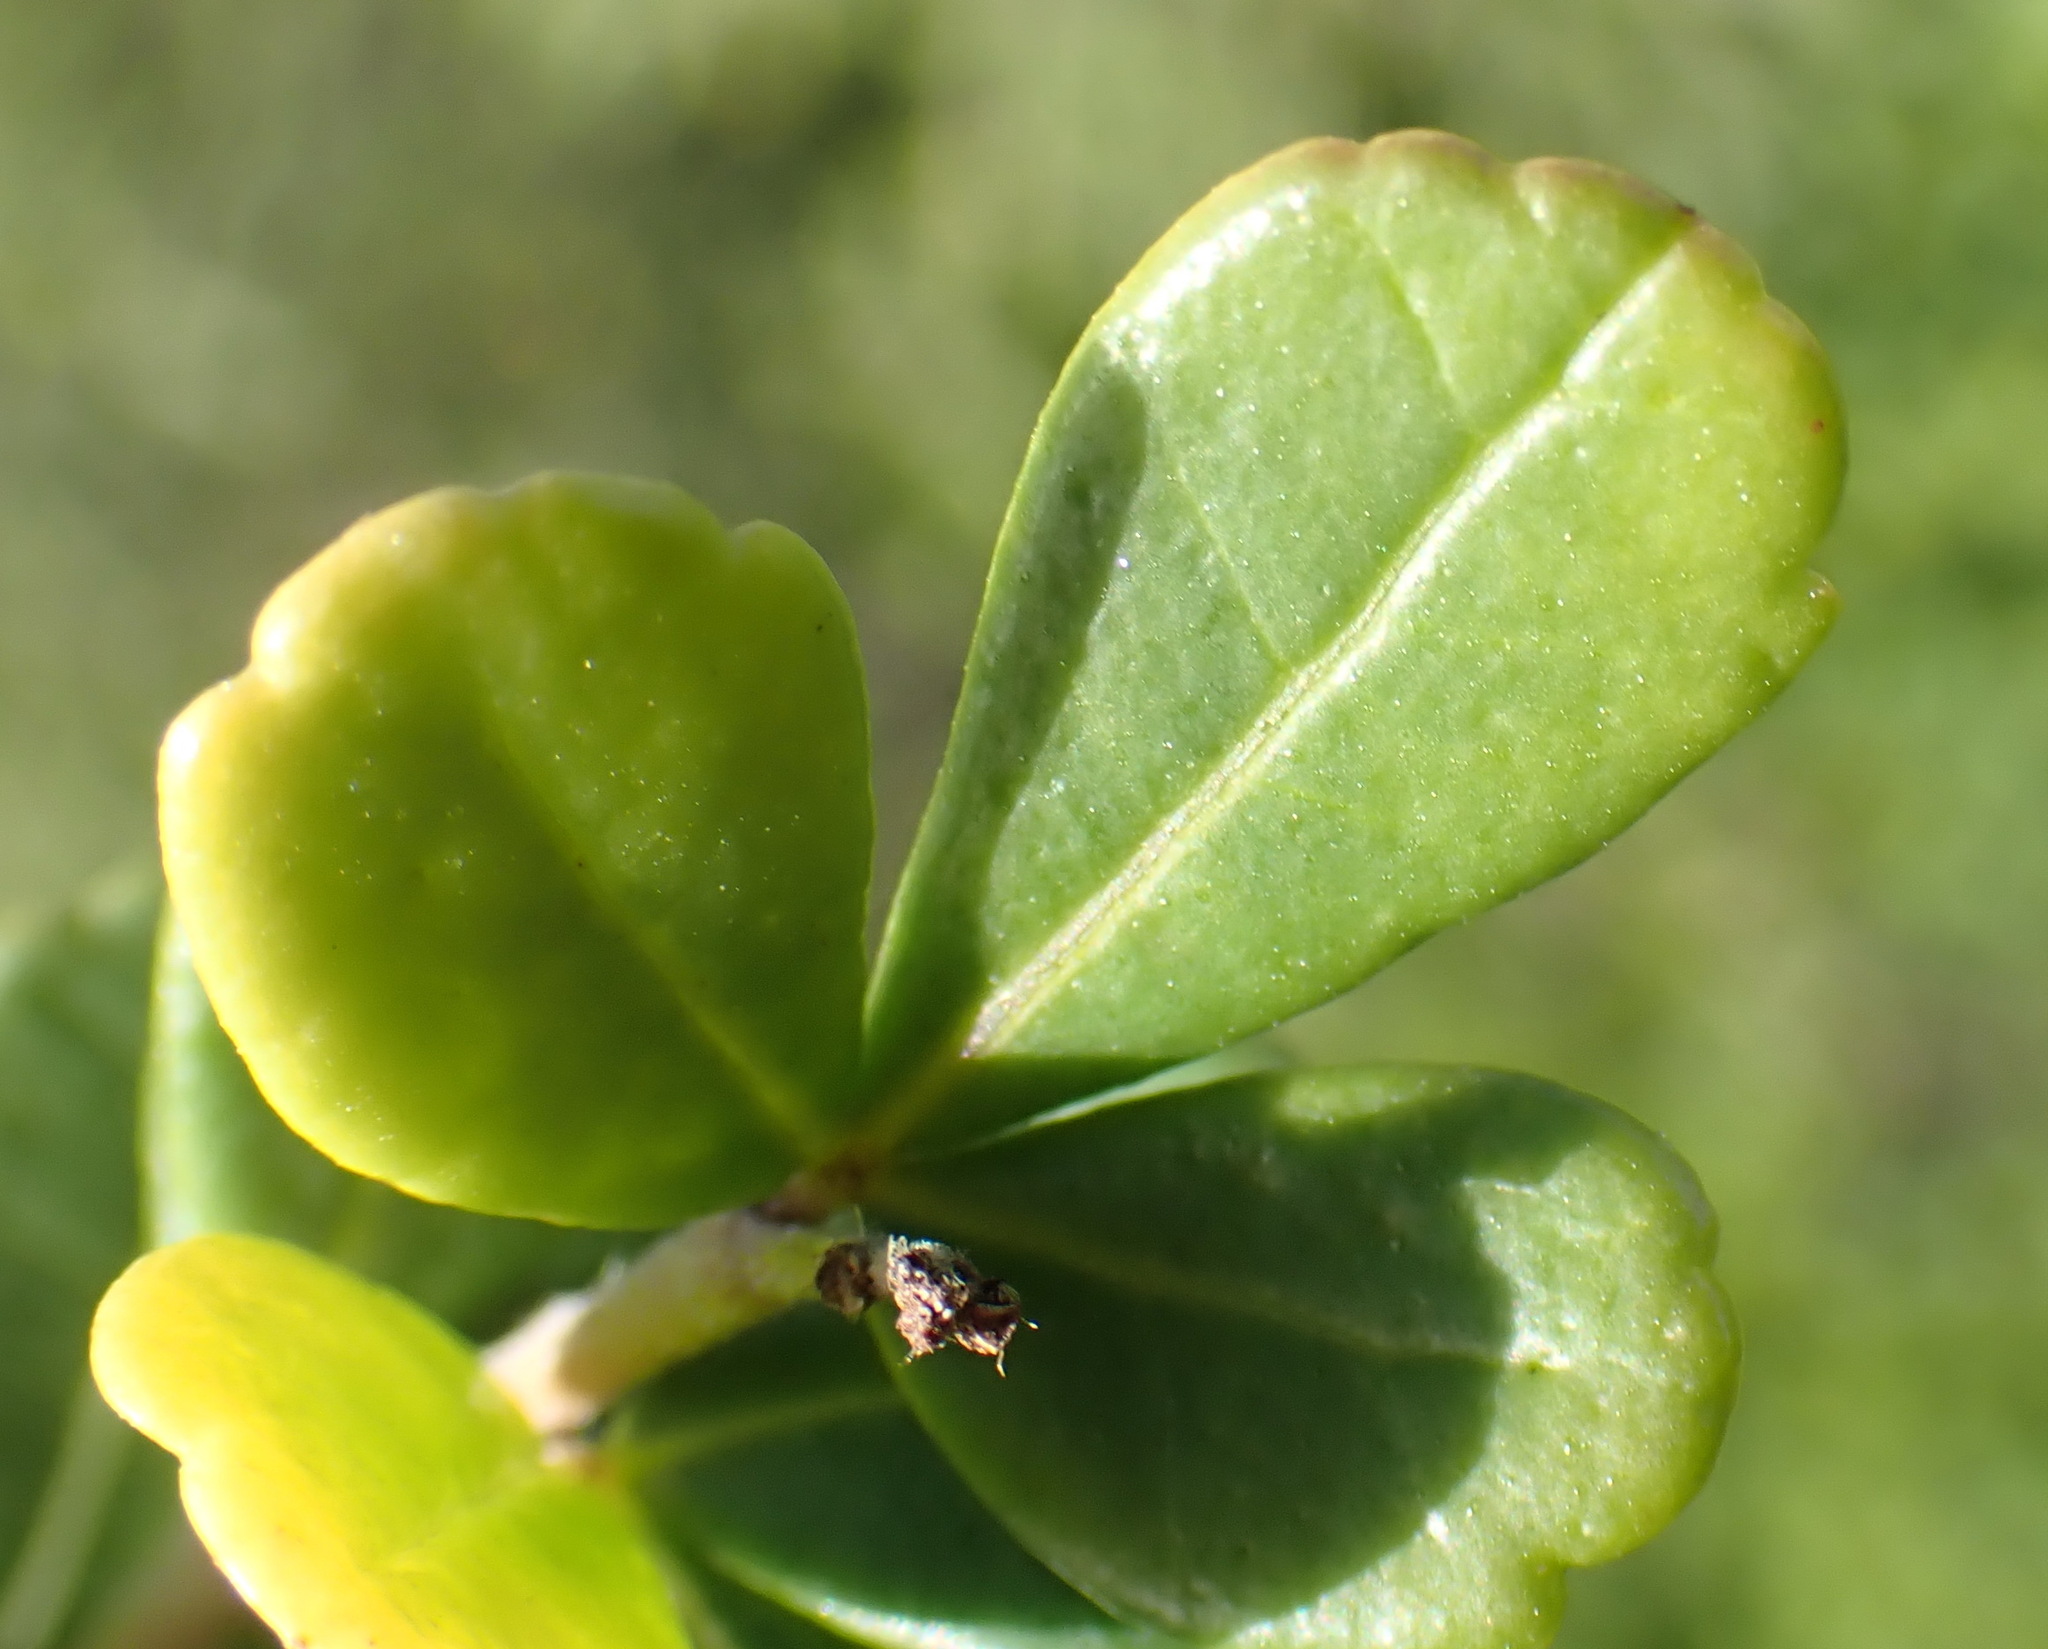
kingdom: Plantae
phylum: Tracheophyta
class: Magnoliopsida
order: Sapindales
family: Anacardiaceae
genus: Searsia
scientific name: Searsia crenata
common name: Crowberry
